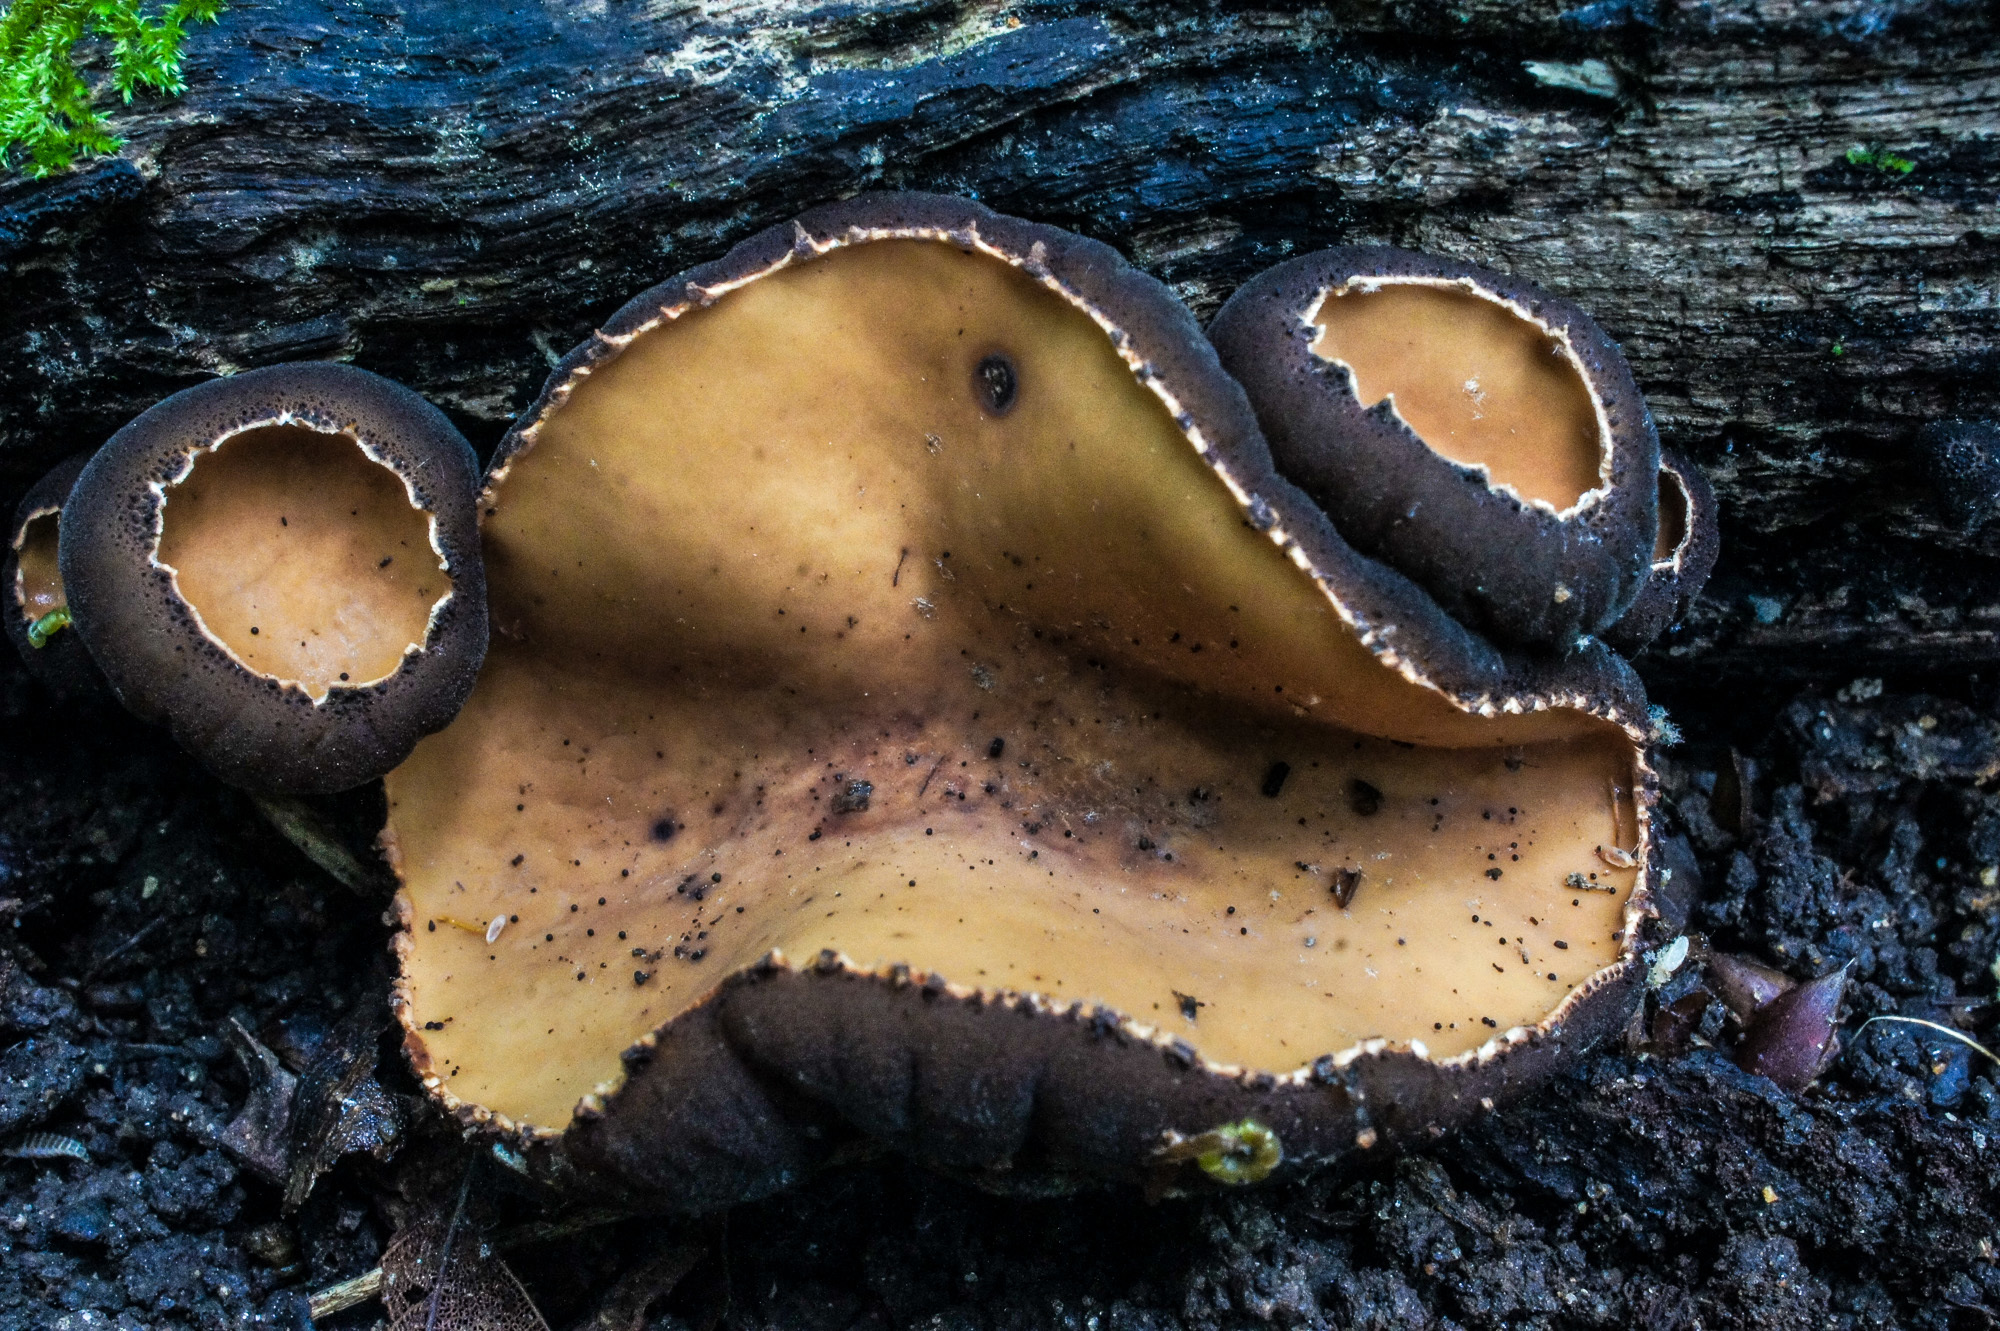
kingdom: Fungi
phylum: Ascomycota
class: Pezizomycetes
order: Pezizales
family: Sarcosomataceae
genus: Galiella
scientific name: Galiella rufa
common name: Hairy rubber cup
